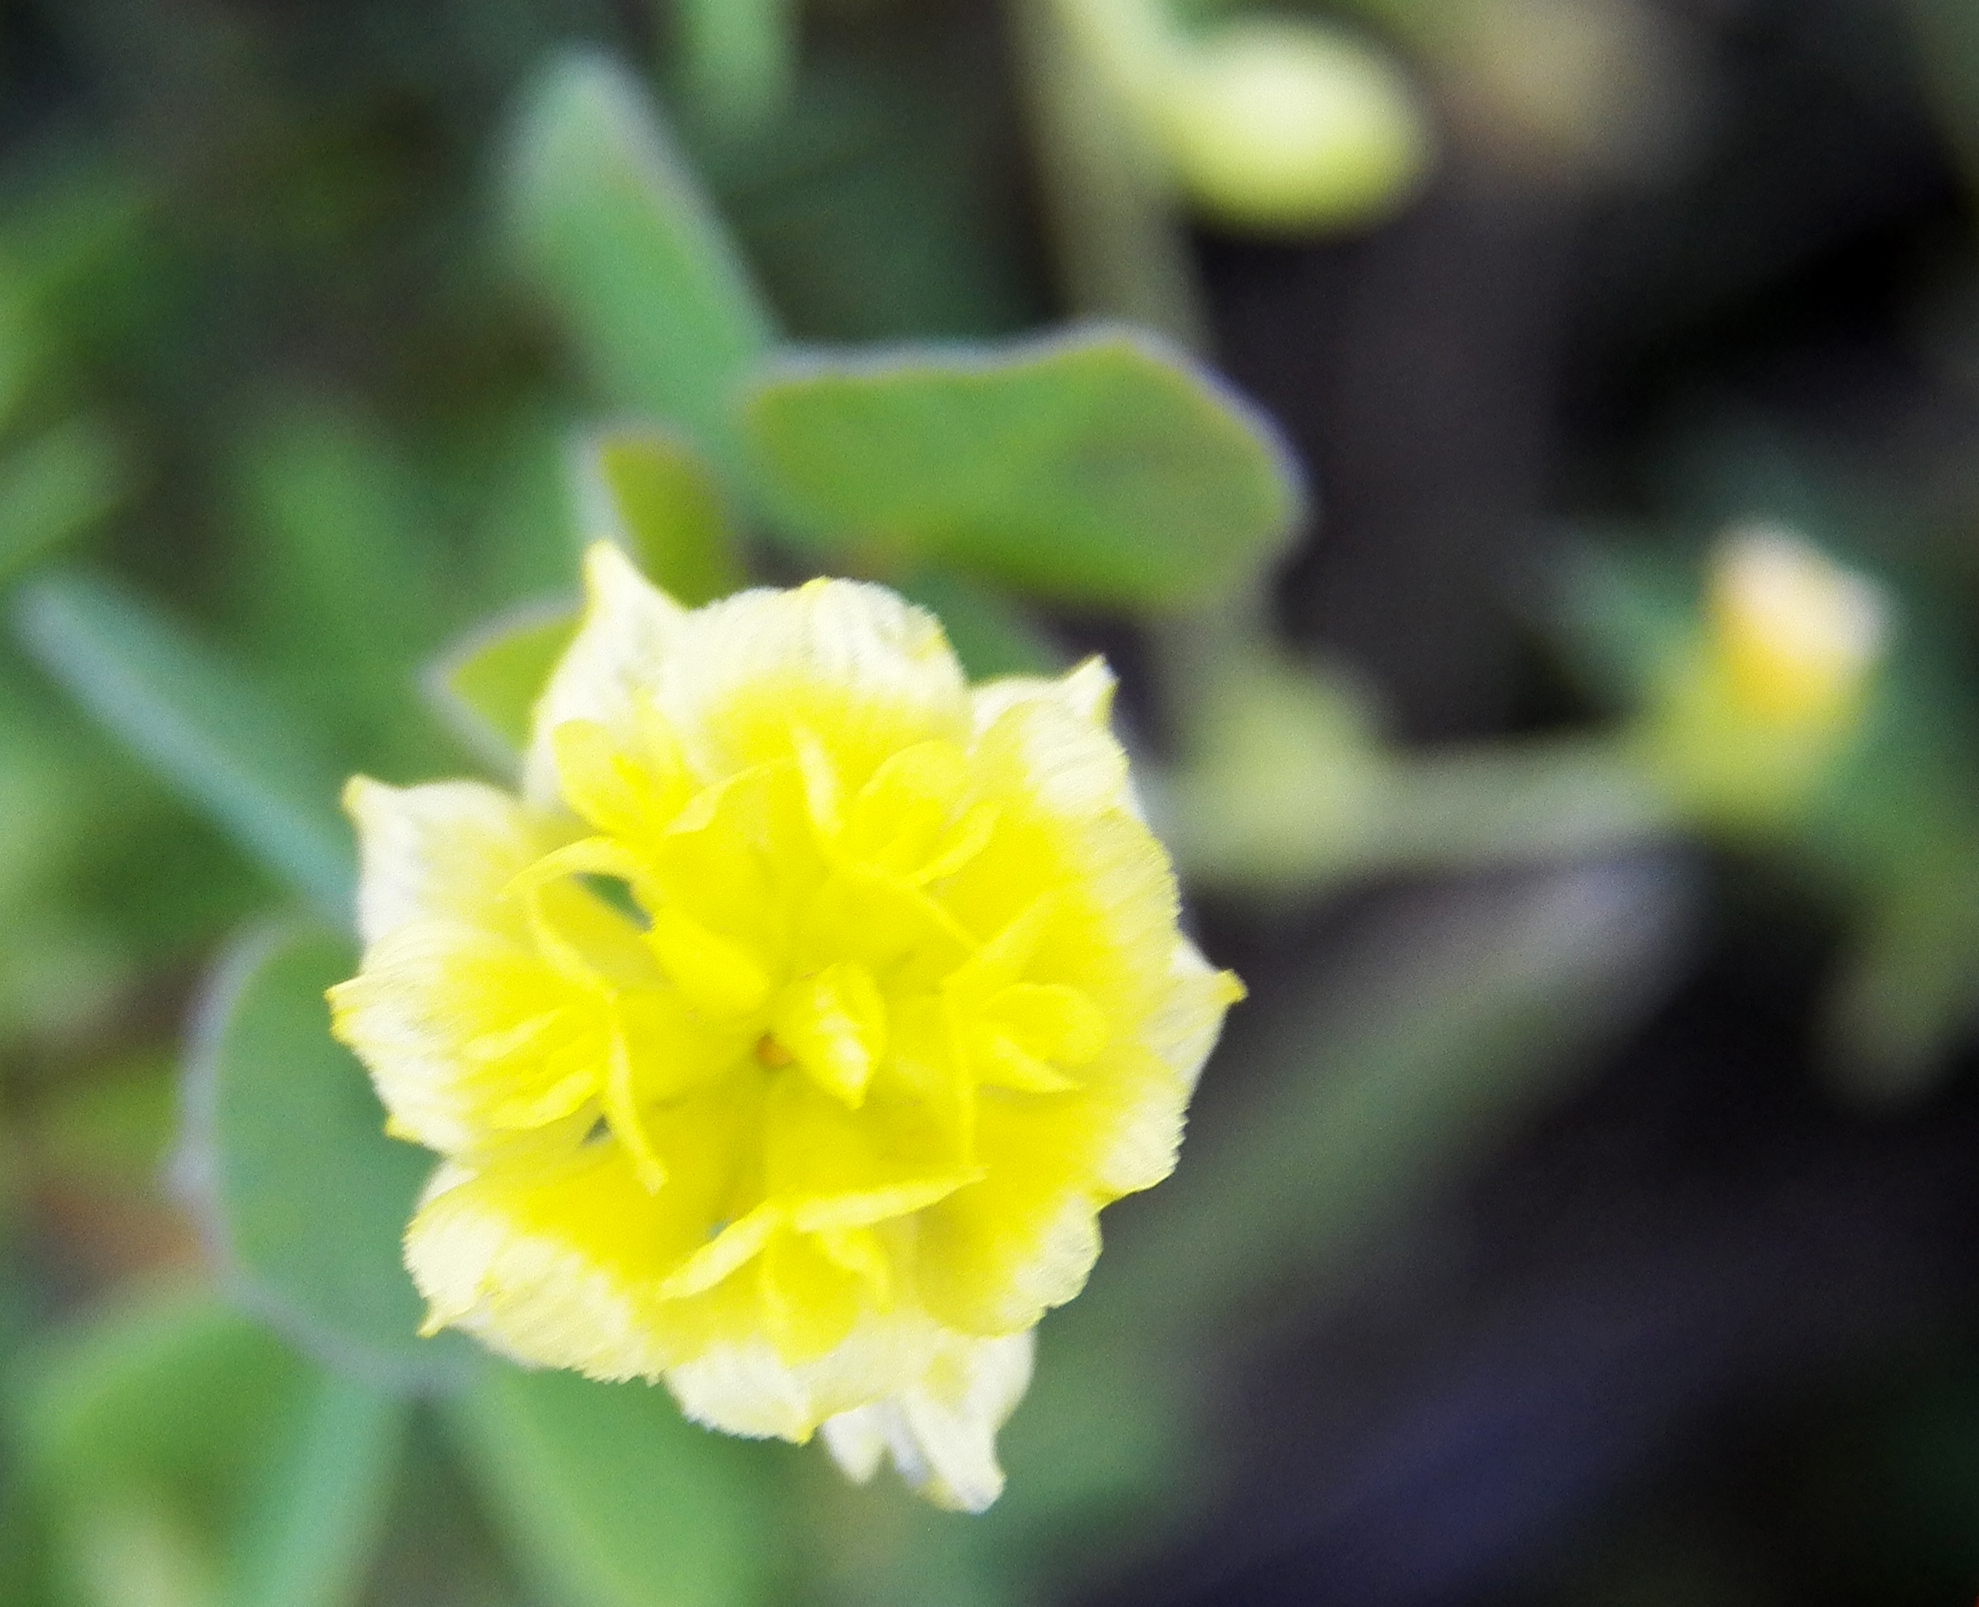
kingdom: Plantae
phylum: Tracheophyta
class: Magnoliopsida
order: Fabales
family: Fabaceae
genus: Trifolium
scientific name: Trifolium campestre
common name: Field clover
